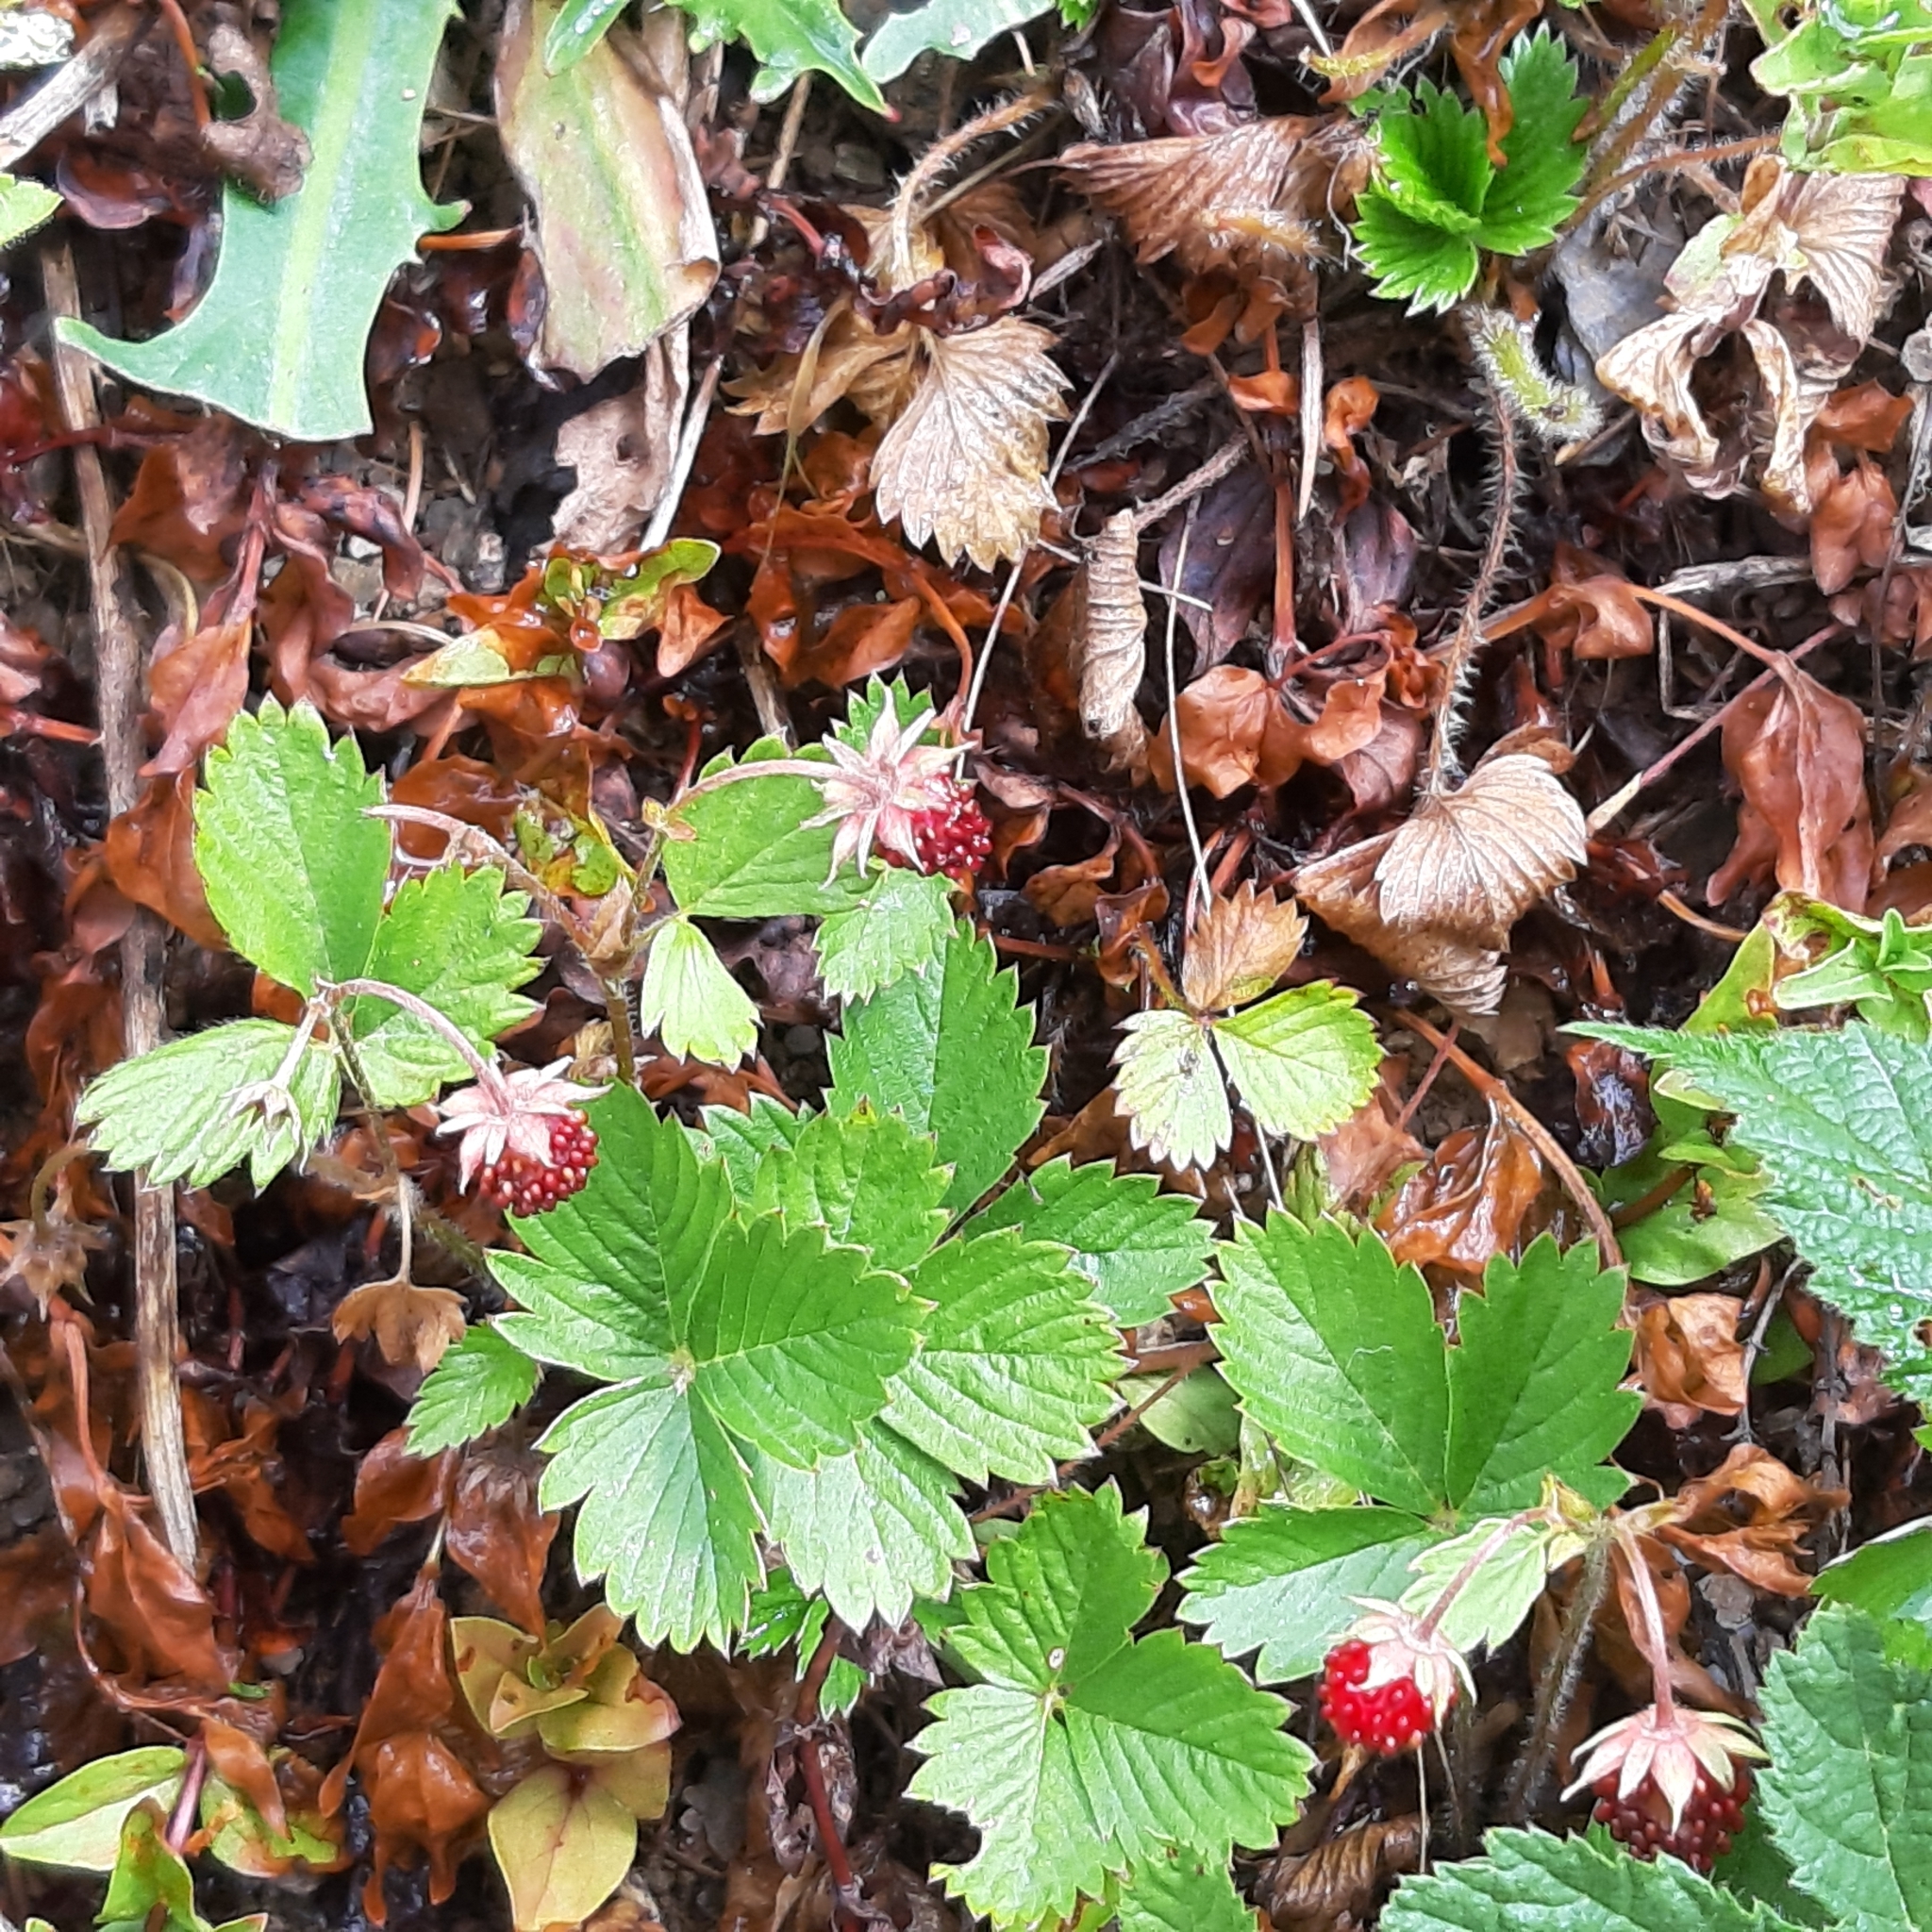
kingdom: Plantae
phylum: Tracheophyta
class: Magnoliopsida
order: Rosales
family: Rosaceae
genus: Fragaria
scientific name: Fragaria vesca
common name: Wild strawberry
